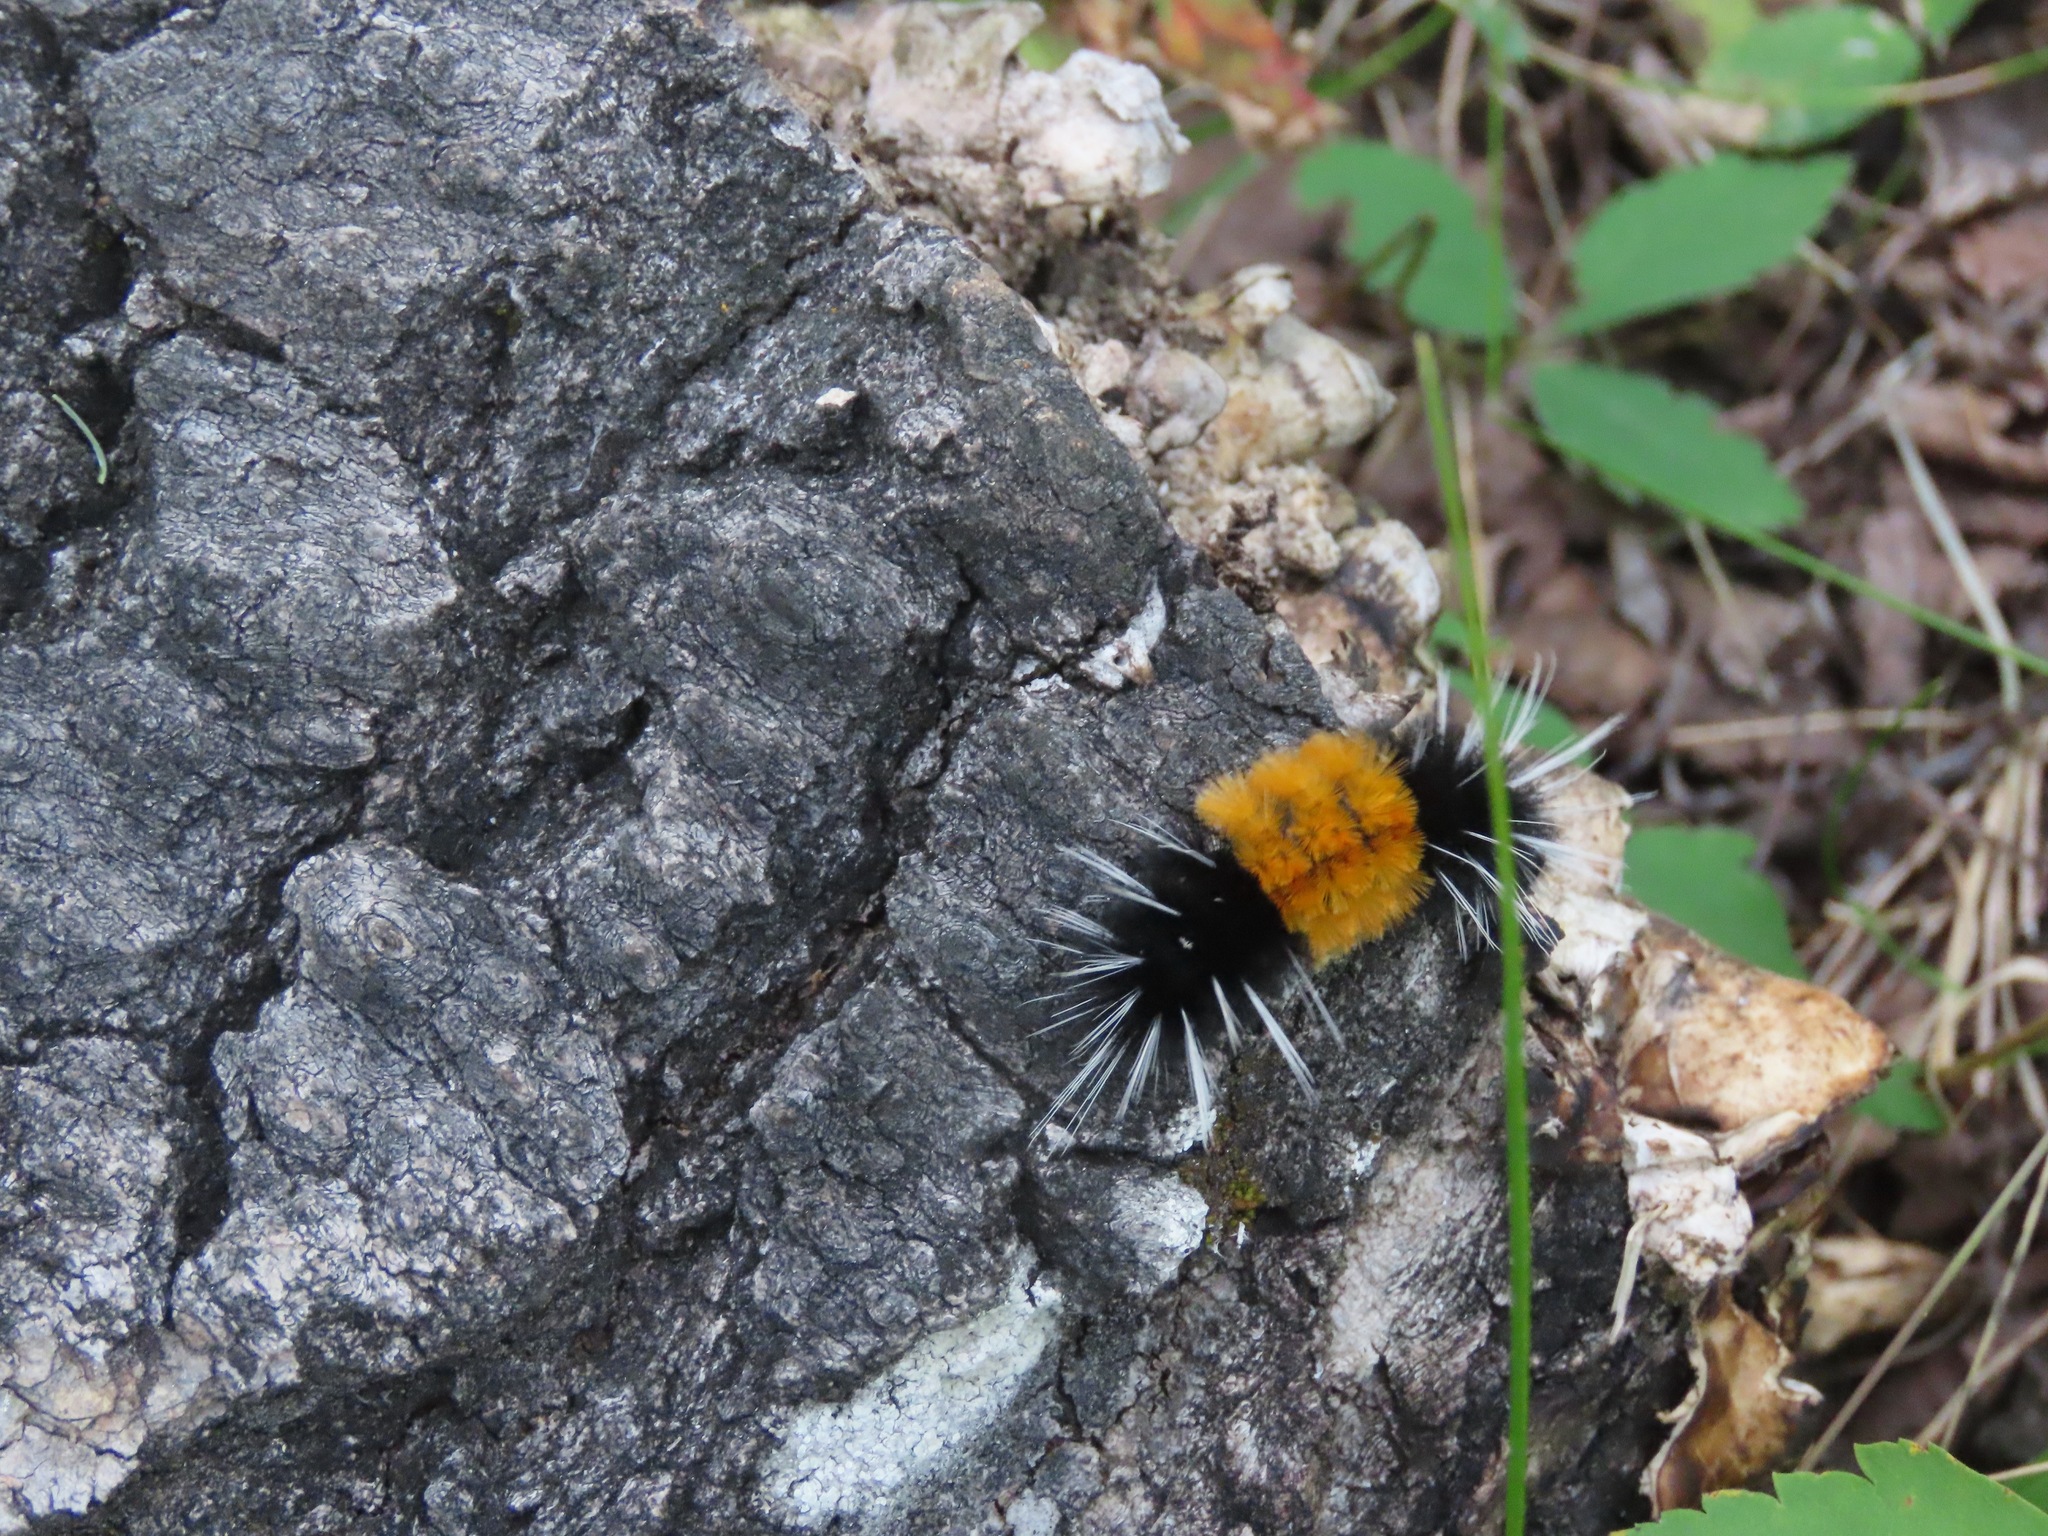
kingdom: Animalia
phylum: Arthropoda
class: Insecta
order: Lepidoptera
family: Erebidae
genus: Lophocampa
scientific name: Lophocampa maculata
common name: Spotted tussock moth
